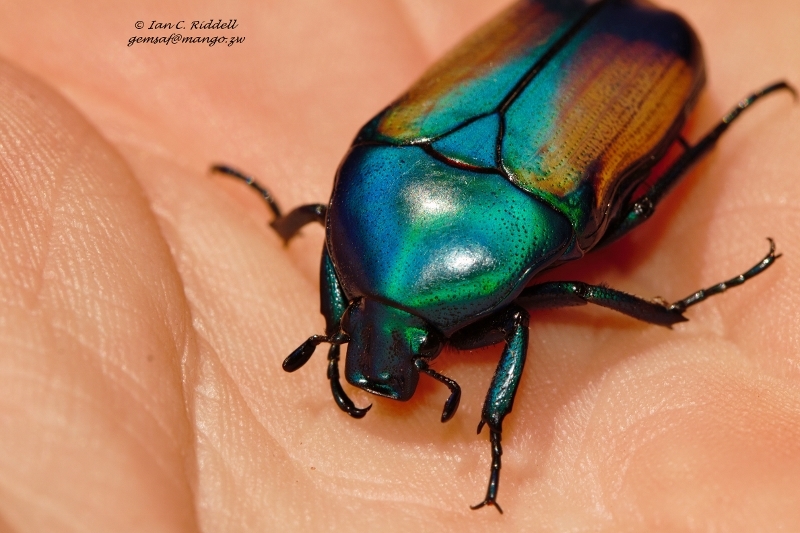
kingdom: Animalia
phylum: Arthropoda
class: Insecta
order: Coleoptera
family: Scarabaeidae
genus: Chlorocala
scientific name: Chlorocala africana
